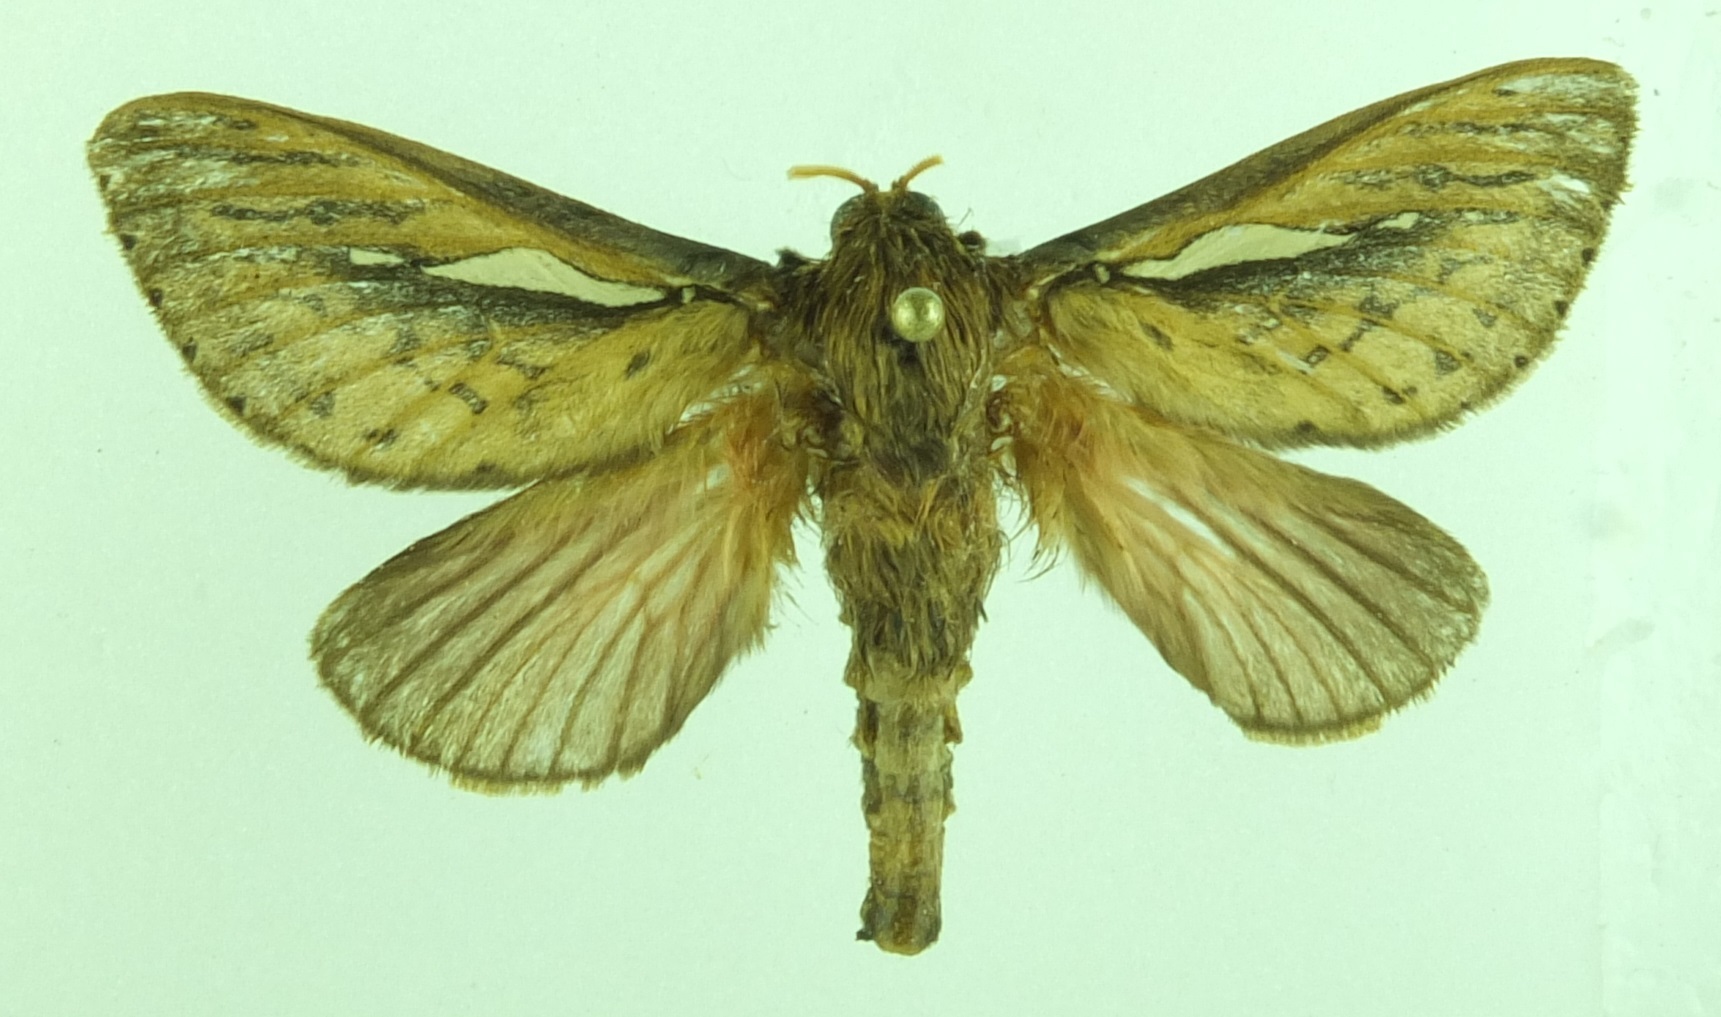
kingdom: Animalia
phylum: Arthropoda
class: Insecta
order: Lepidoptera
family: Hepialidae
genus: Wiseana
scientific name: Wiseana umbraculatus
